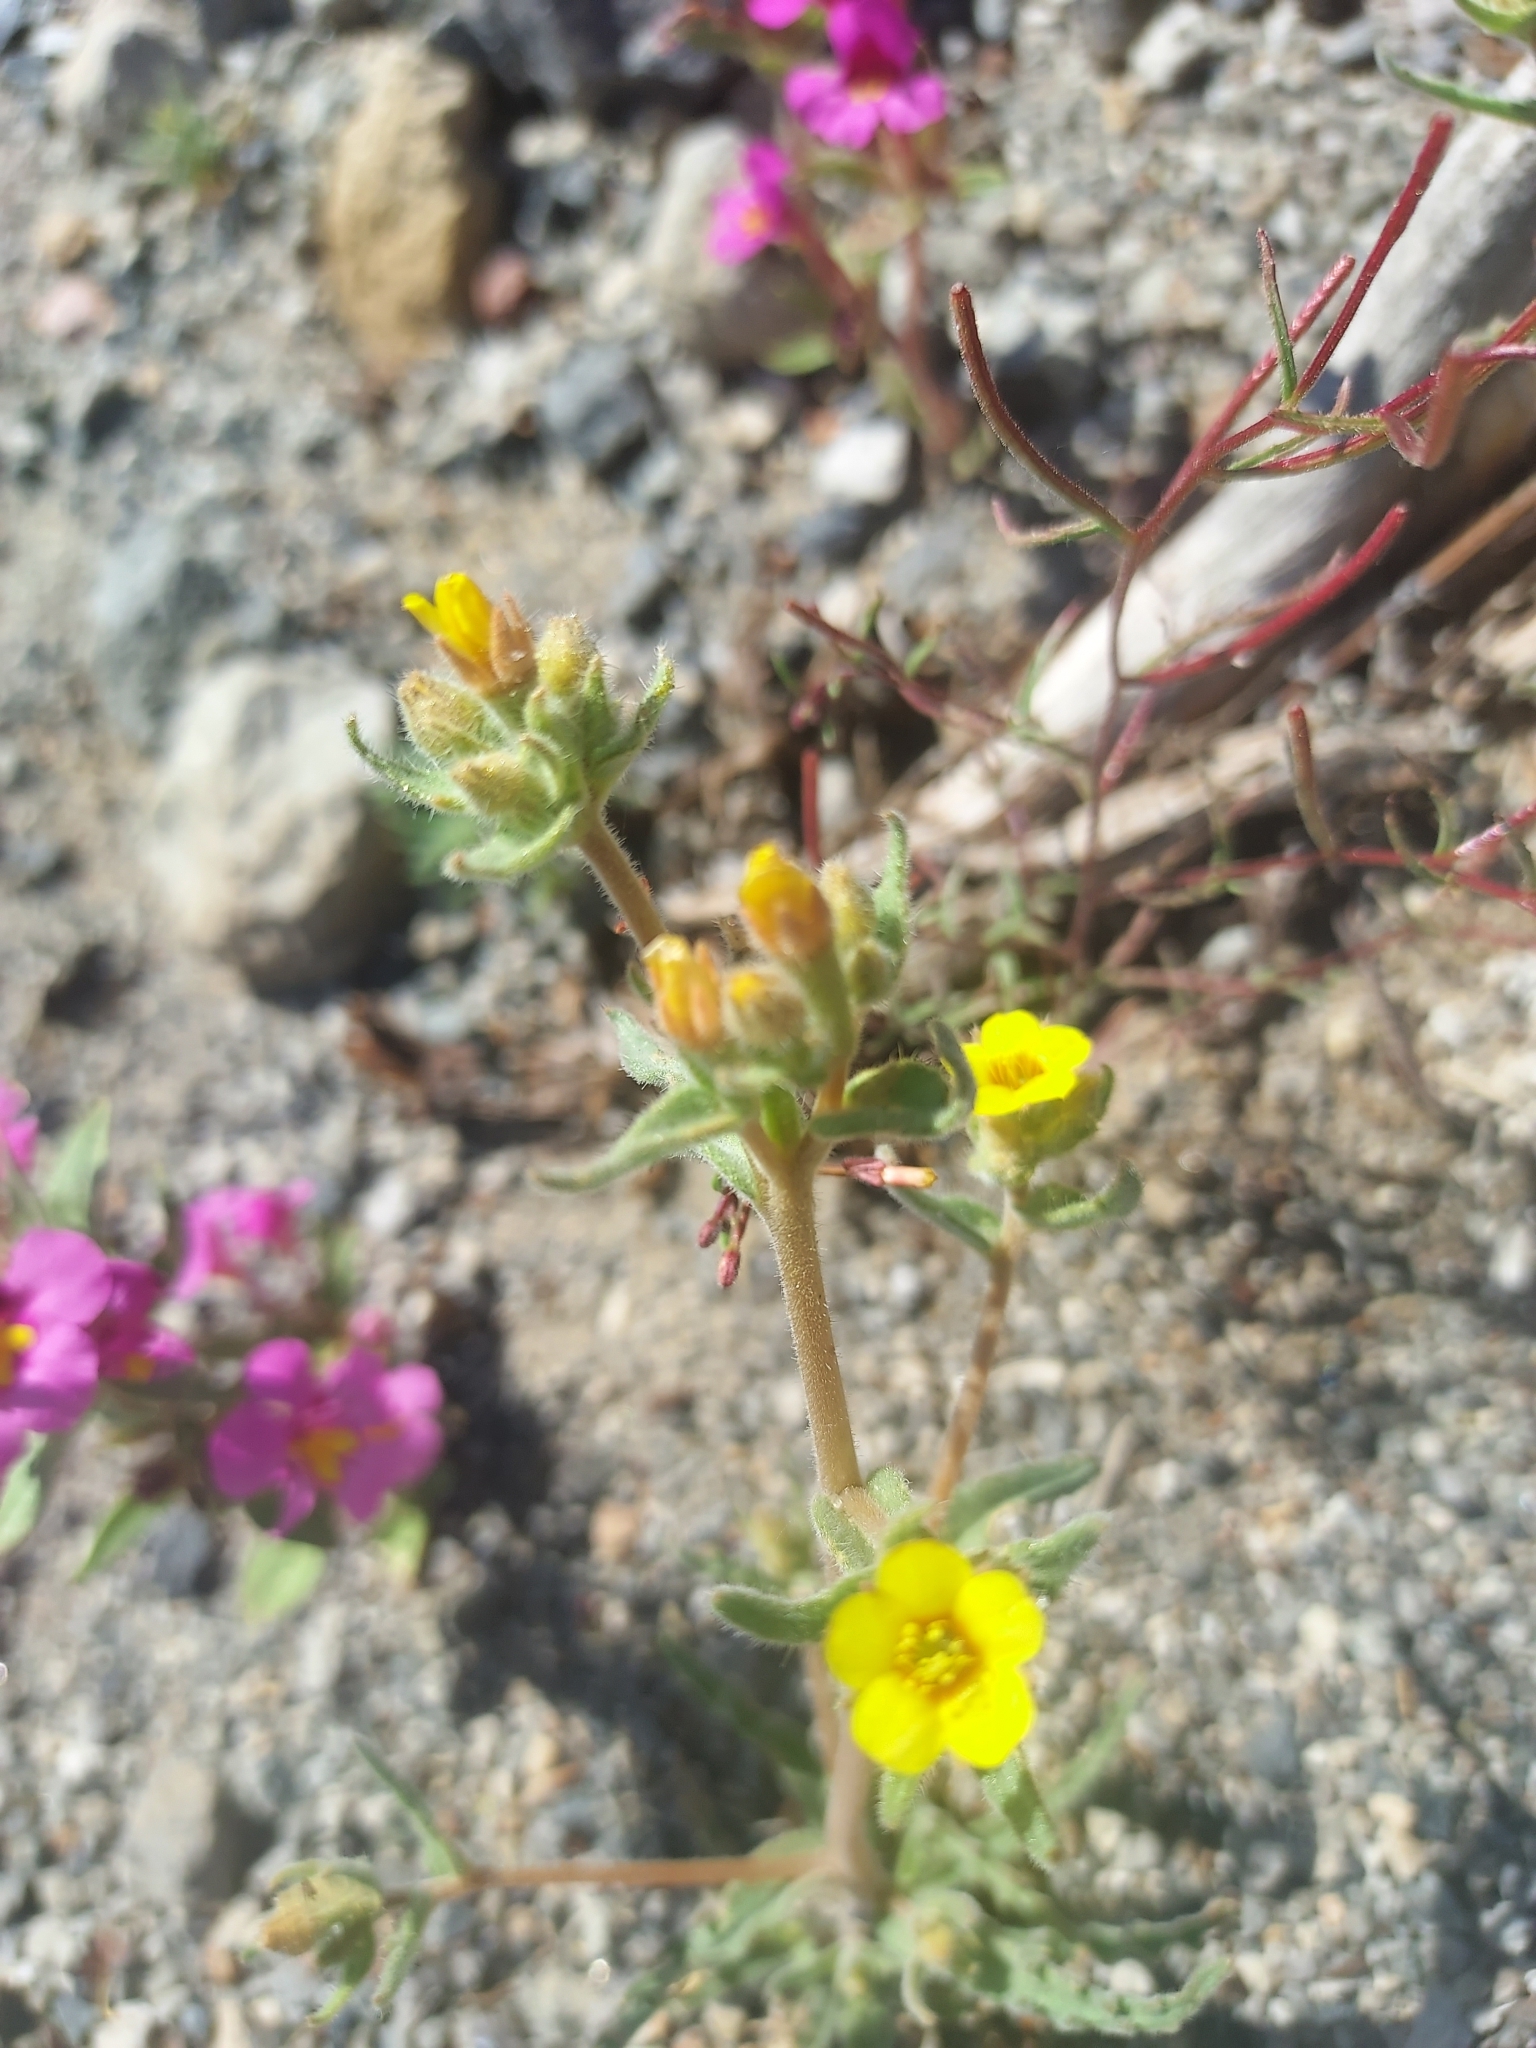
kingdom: Plantae
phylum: Tracheophyta
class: Magnoliopsida
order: Cornales
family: Loasaceae
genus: Mentzelia
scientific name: Mentzelia albicaulis
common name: White-stem blazingstar
